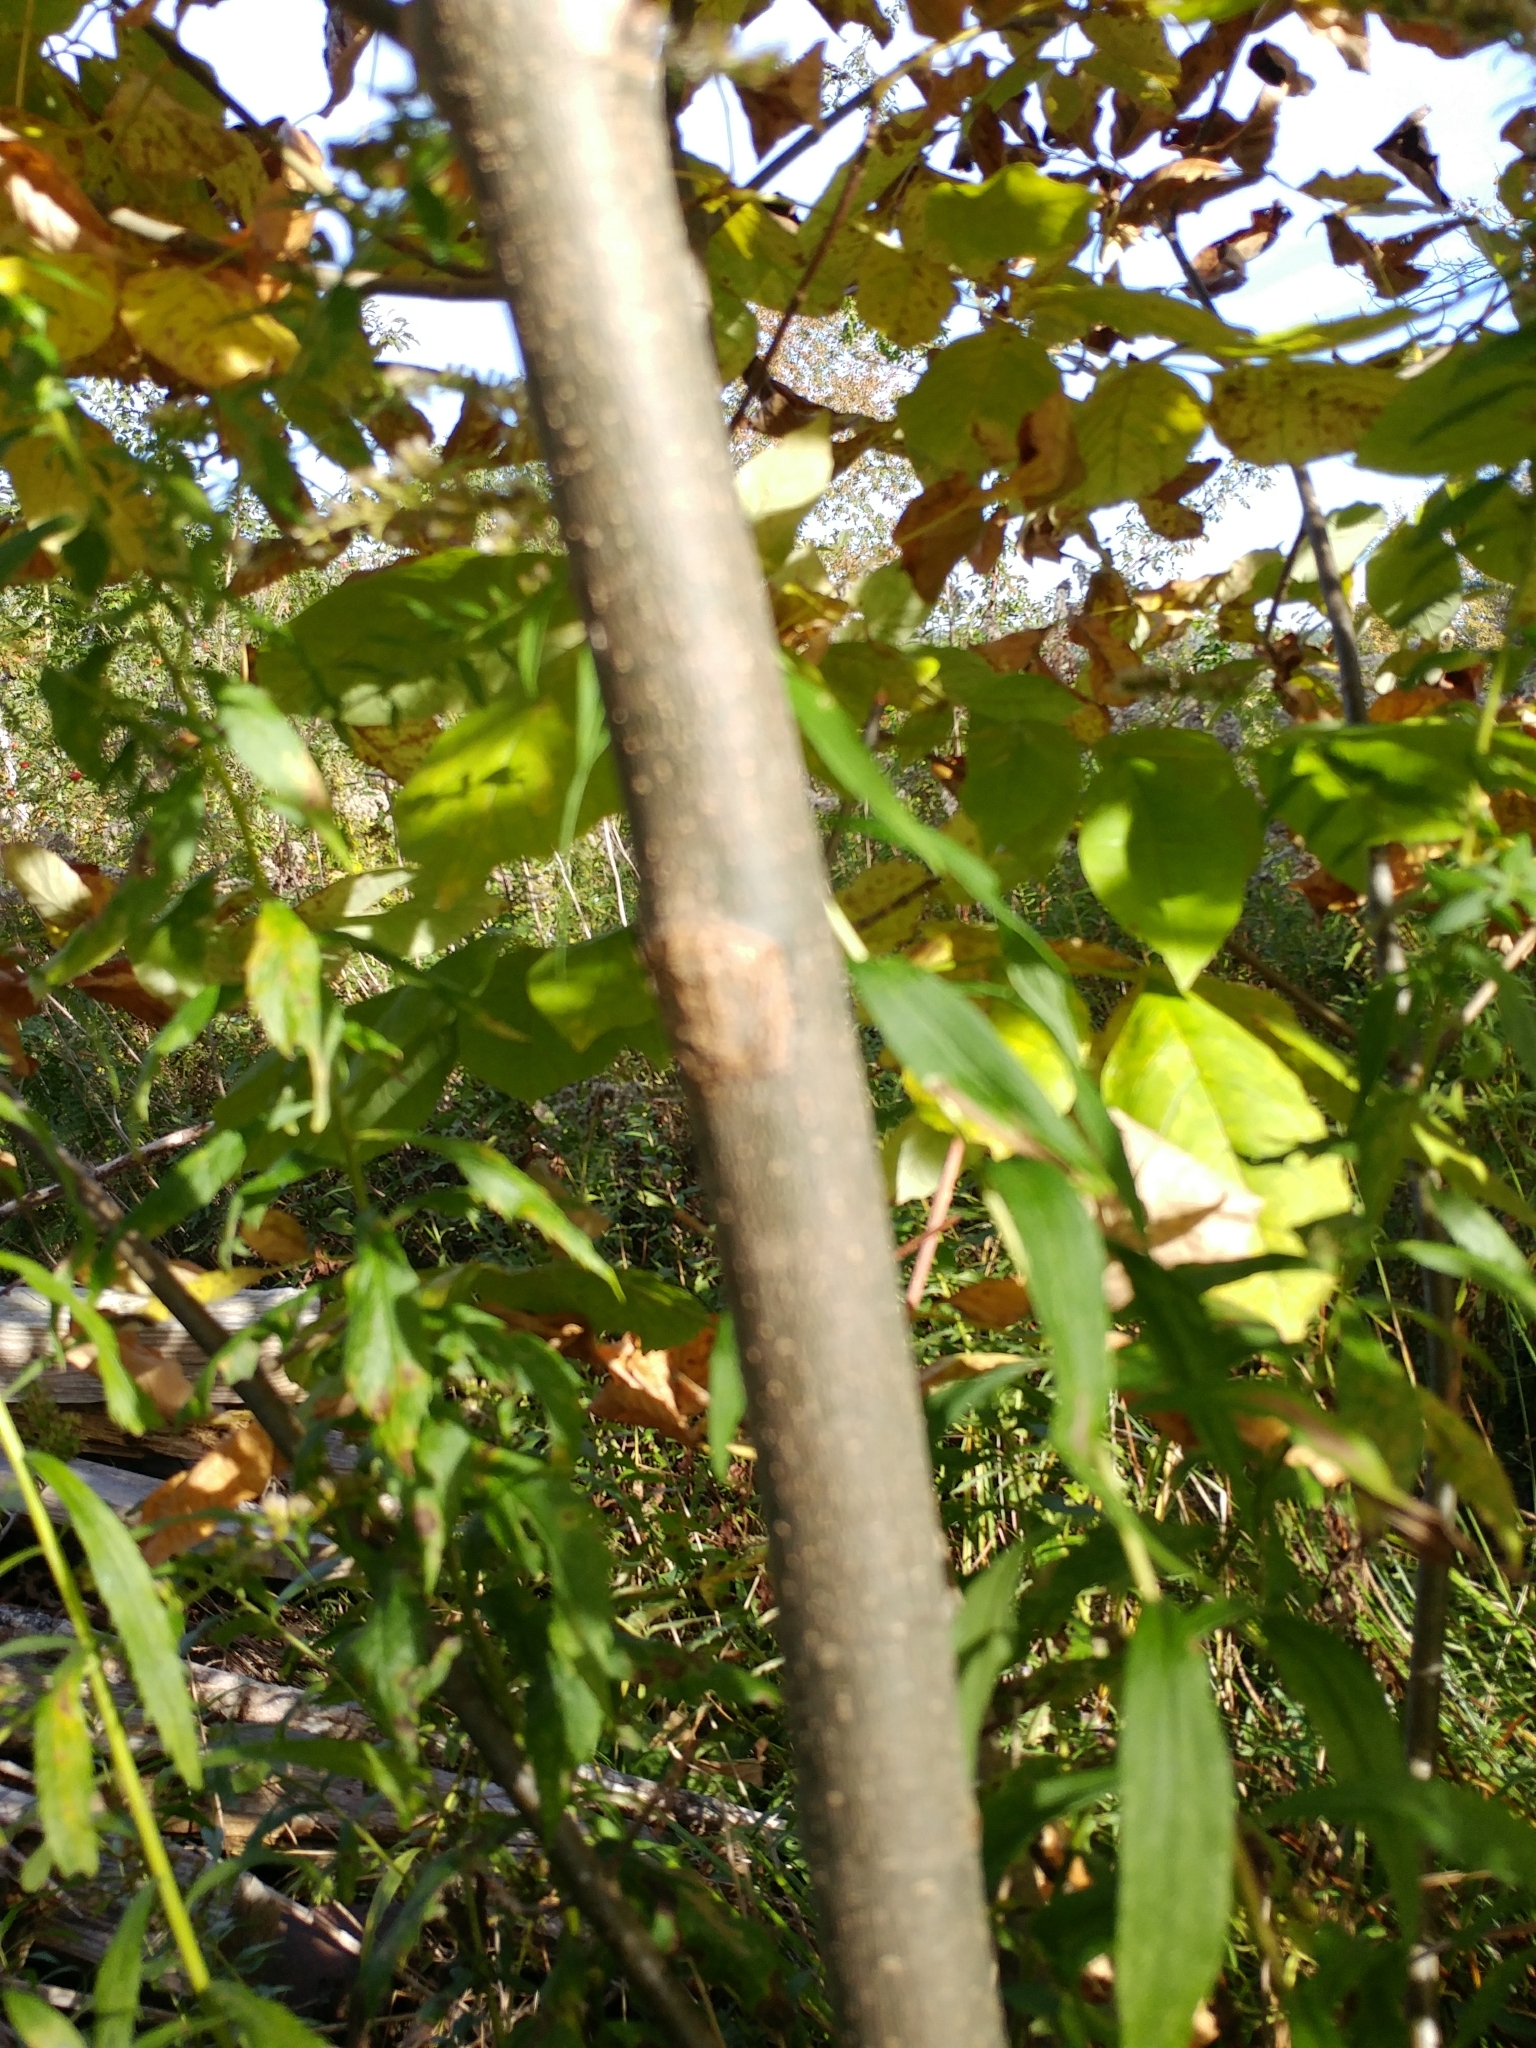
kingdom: Plantae
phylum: Tracheophyta
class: Magnoliopsida
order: Lamiales
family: Oleaceae
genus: Fraxinus
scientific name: Fraxinus americana
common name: White ash
